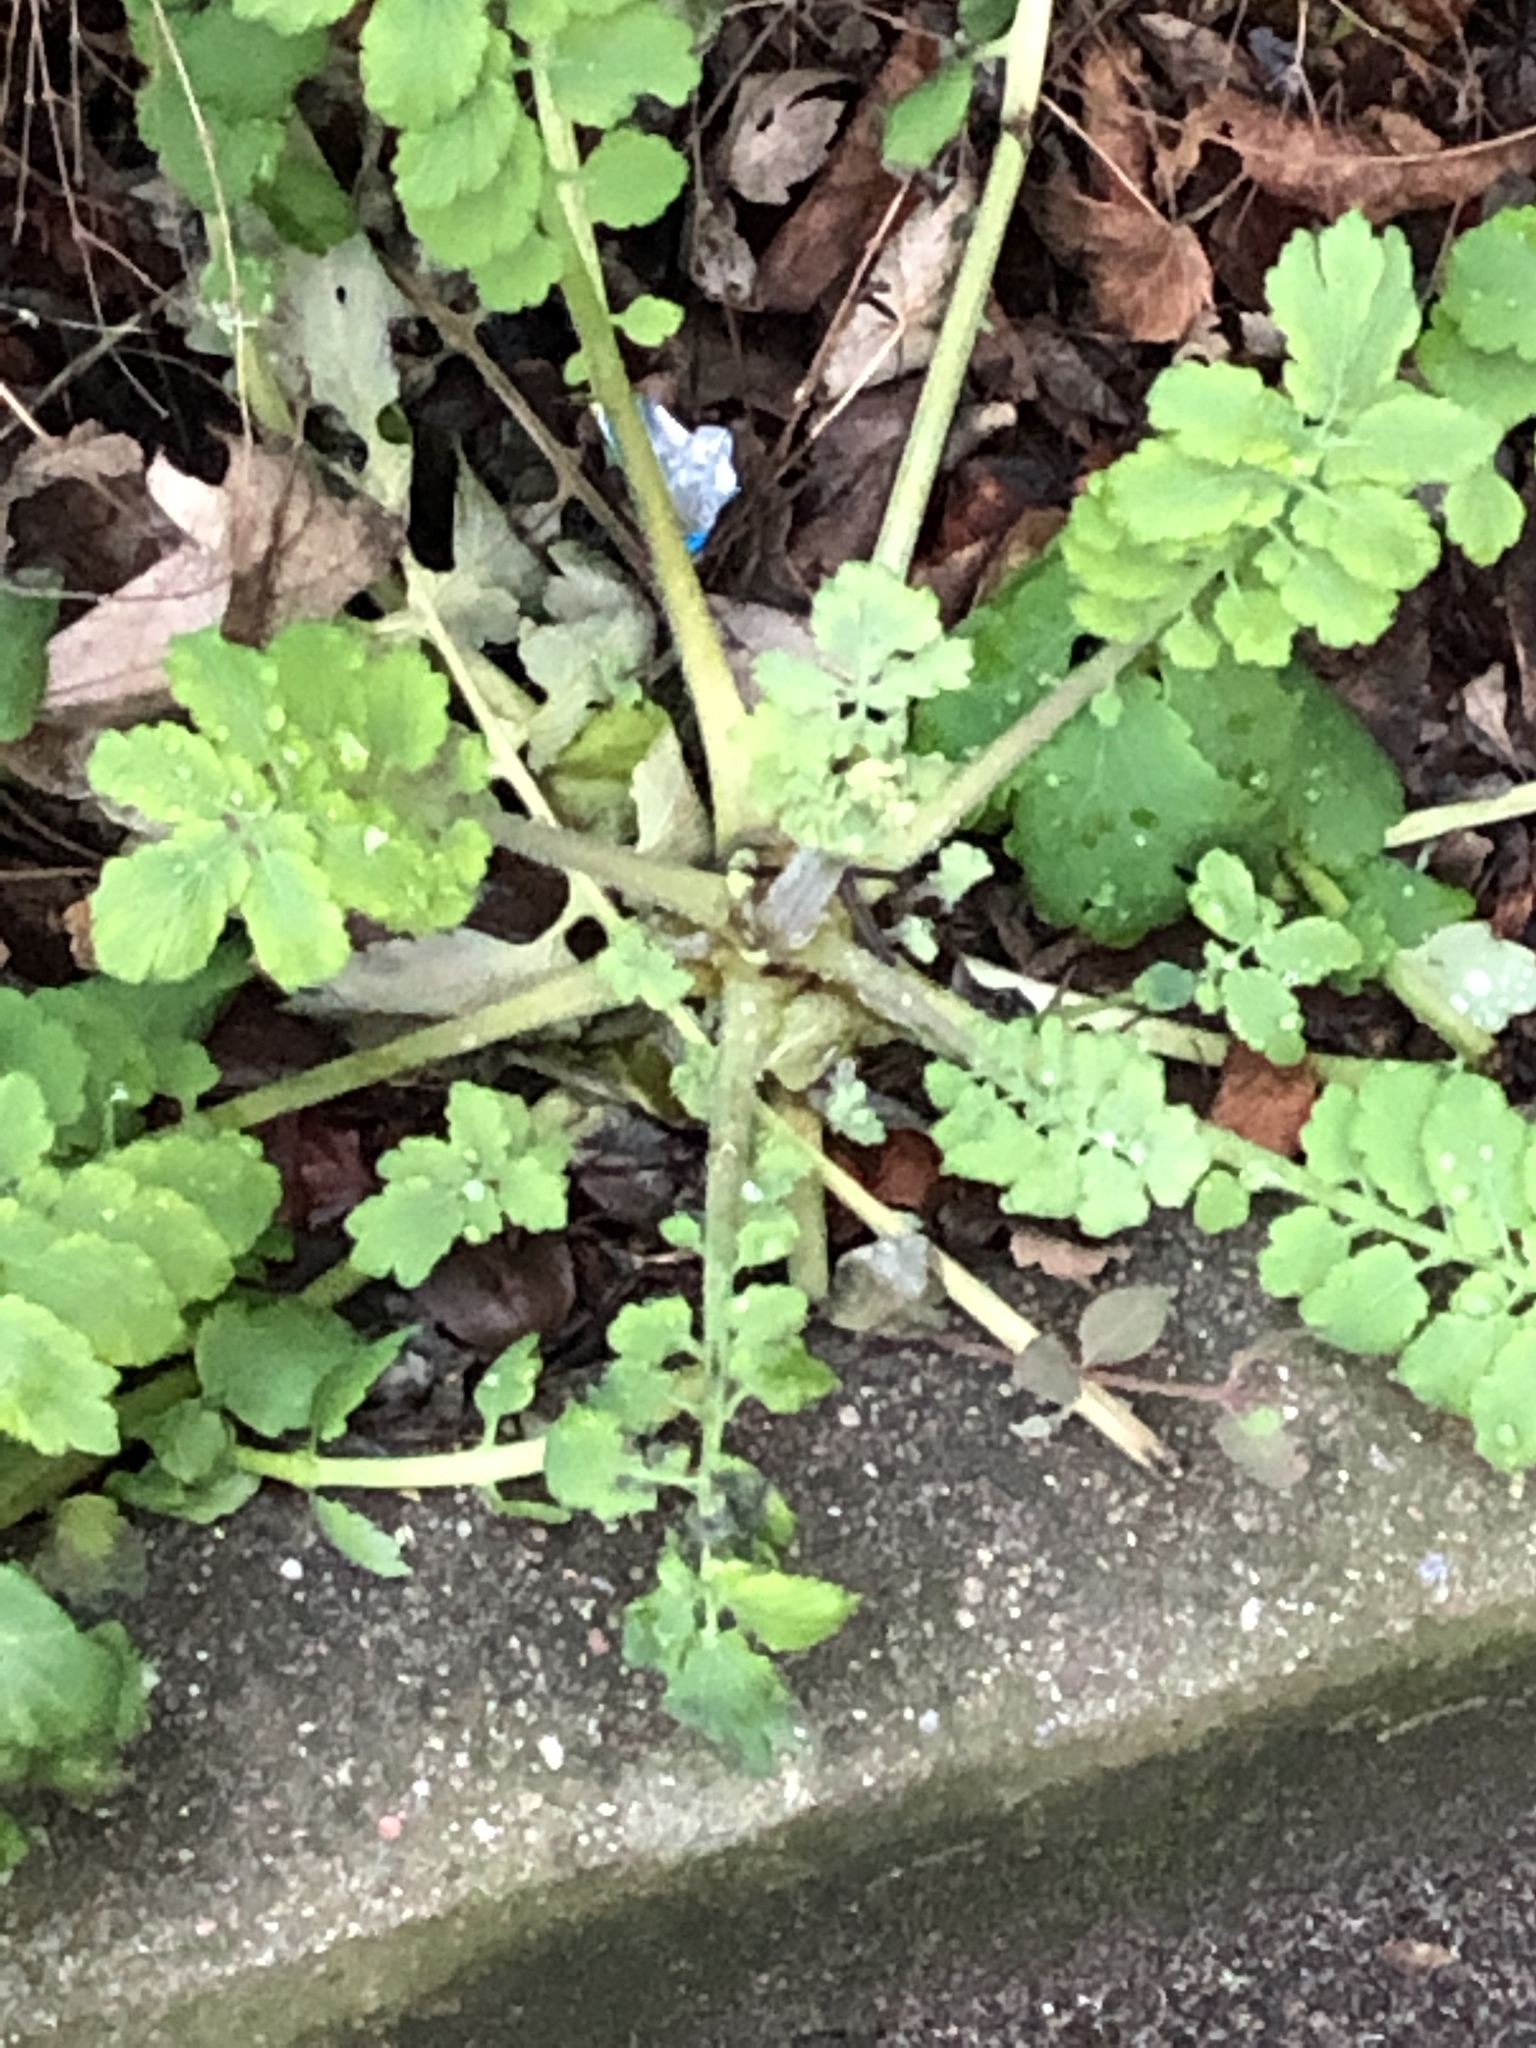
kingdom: Plantae
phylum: Tracheophyta
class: Magnoliopsida
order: Ranunculales
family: Papaveraceae
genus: Chelidonium
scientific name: Chelidonium majus
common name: Greater celandine
